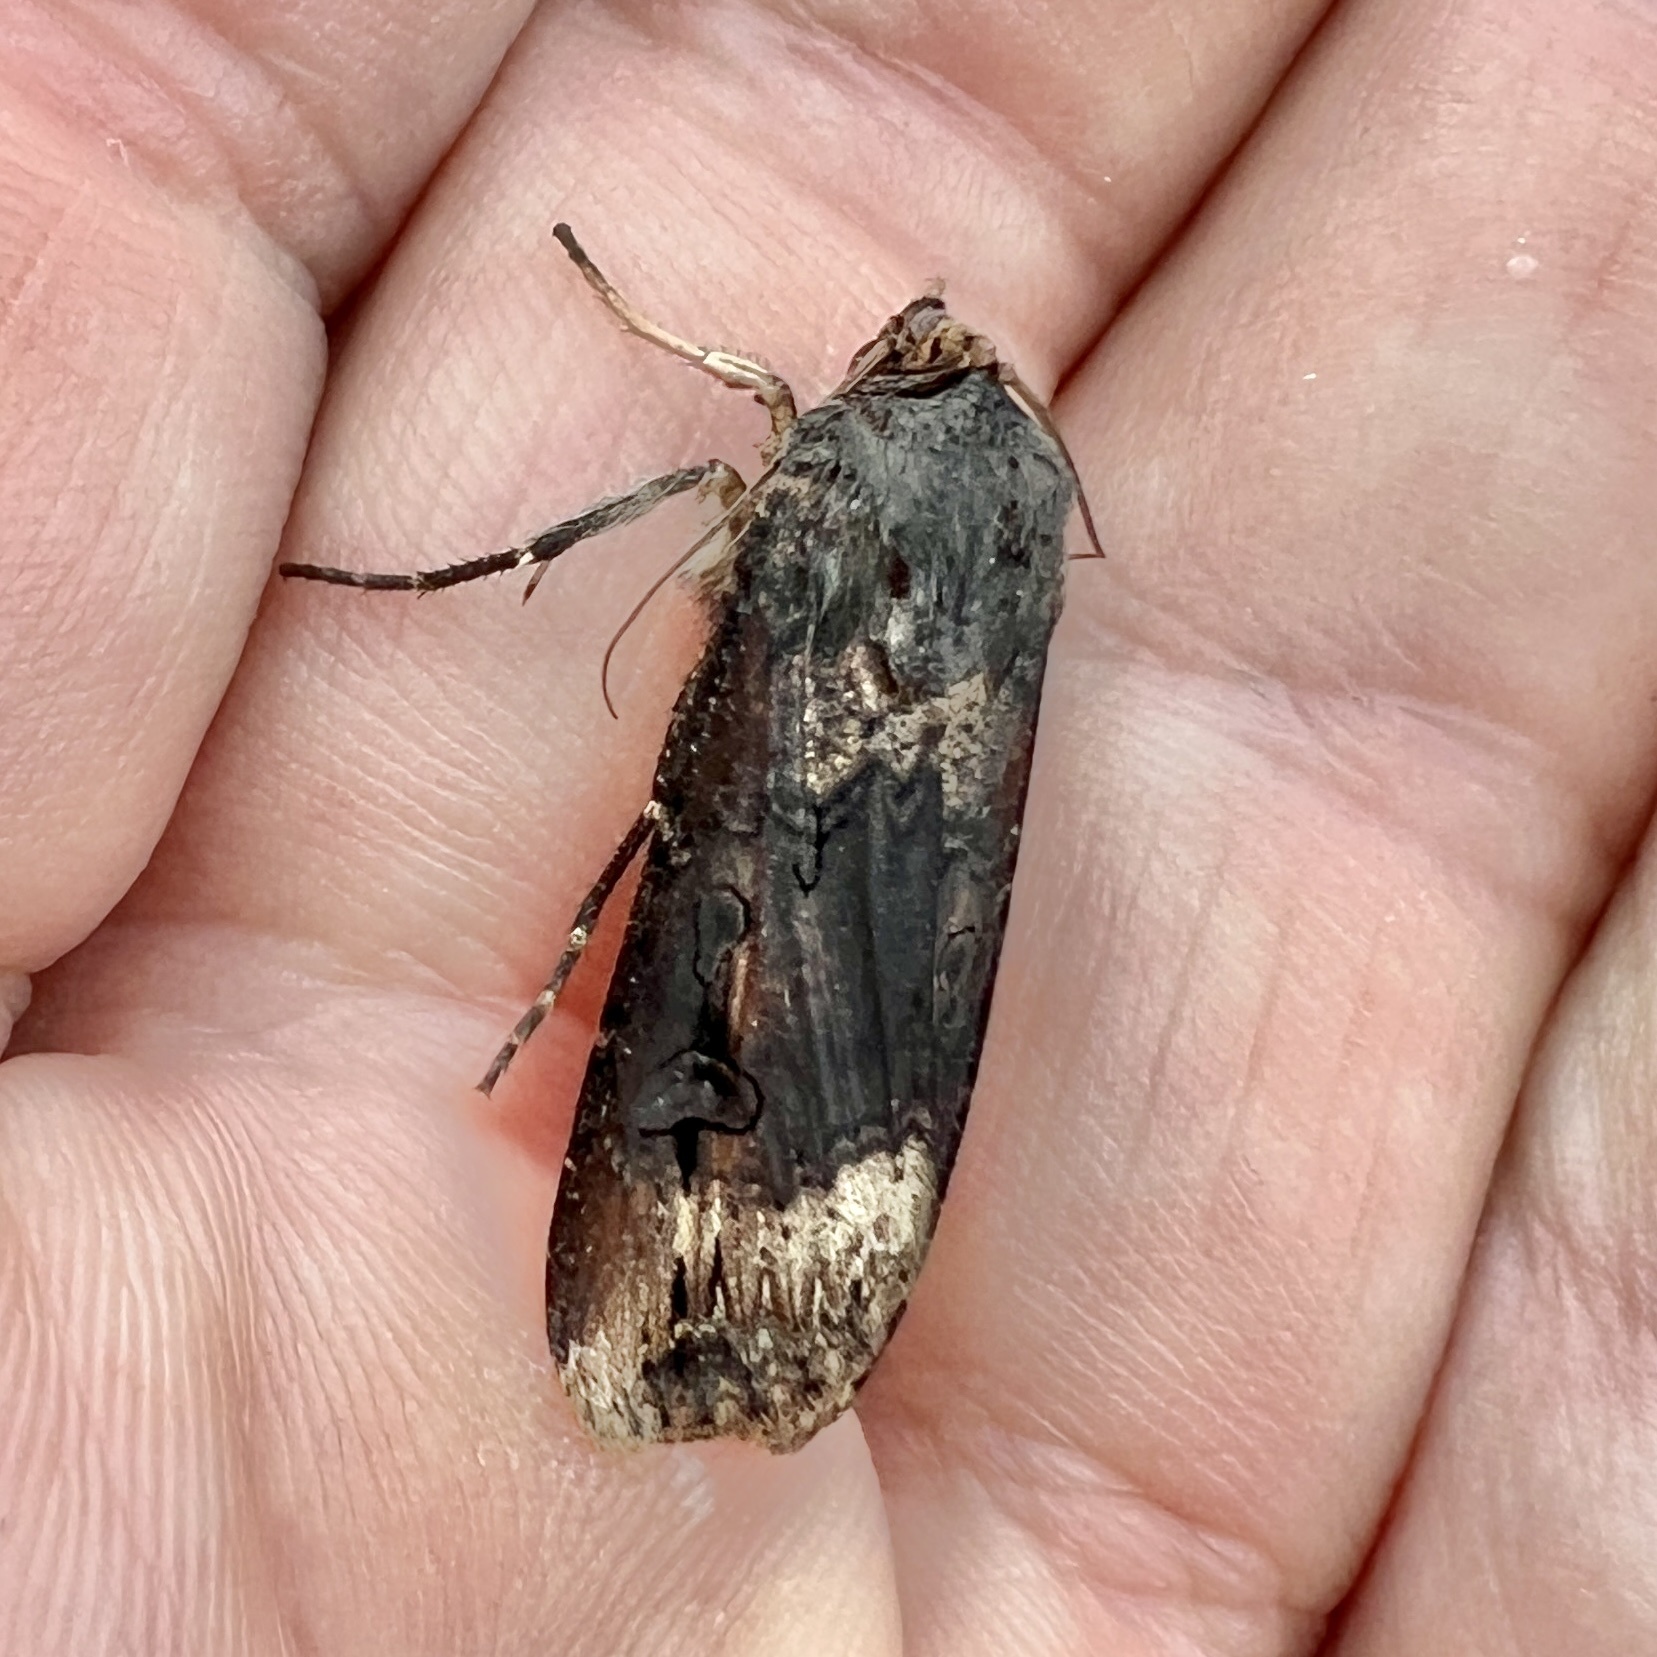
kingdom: Animalia
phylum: Arthropoda
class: Insecta
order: Lepidoptera
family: Noctuidae
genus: Agrotis
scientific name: Agrotis ipsilon
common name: Dark sword-grass
